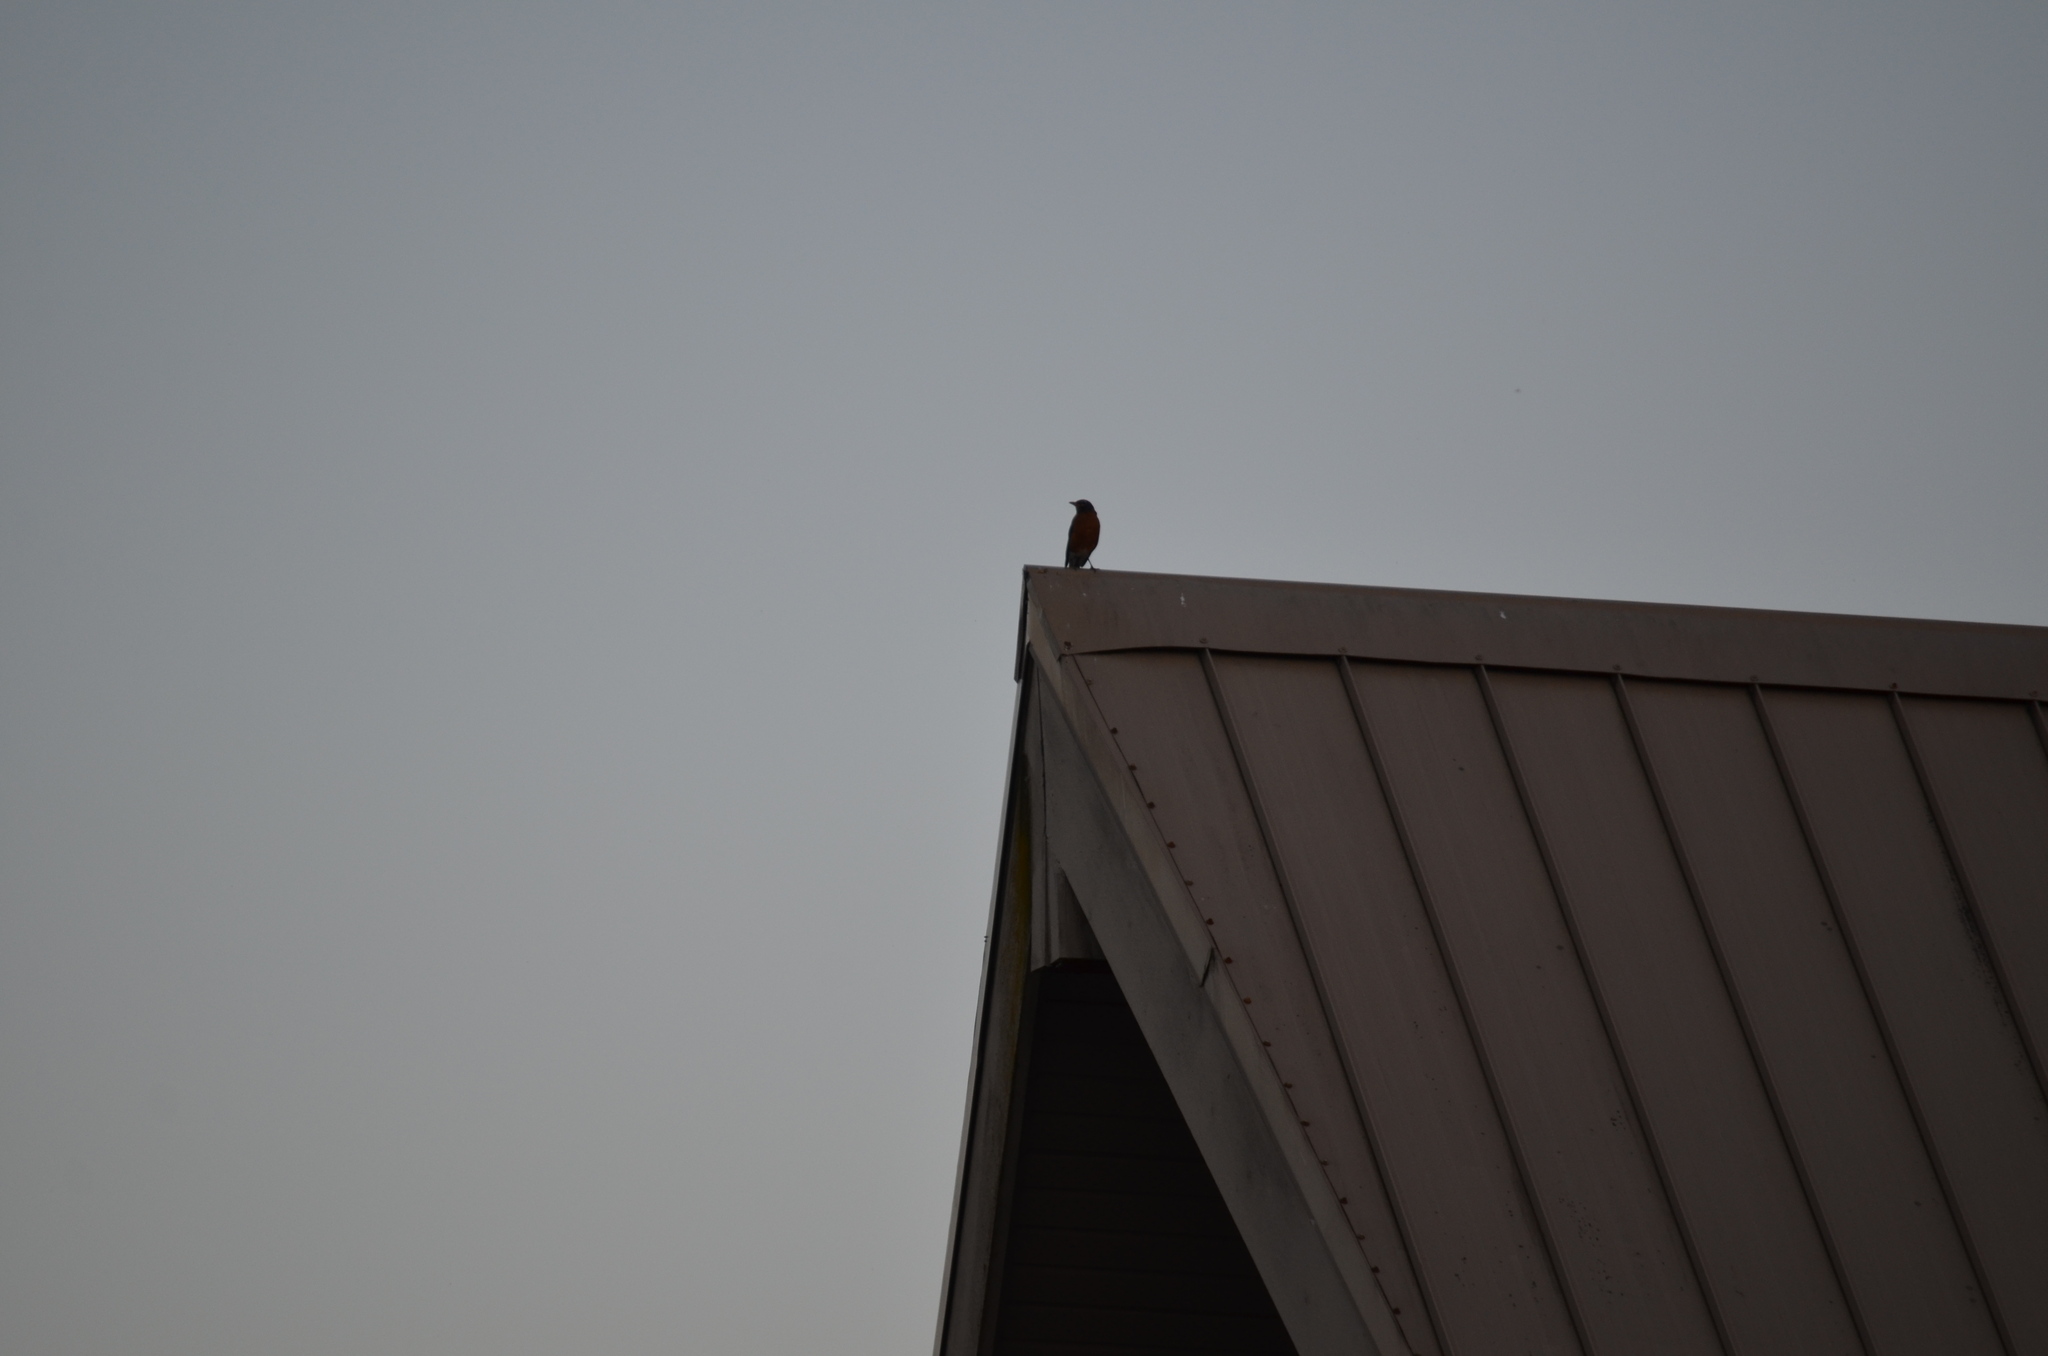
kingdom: Animalia
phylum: Chordata
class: Aves
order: Passeriformes
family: Turdidae
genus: Turdus
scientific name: Turdus migratorius
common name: American robin
